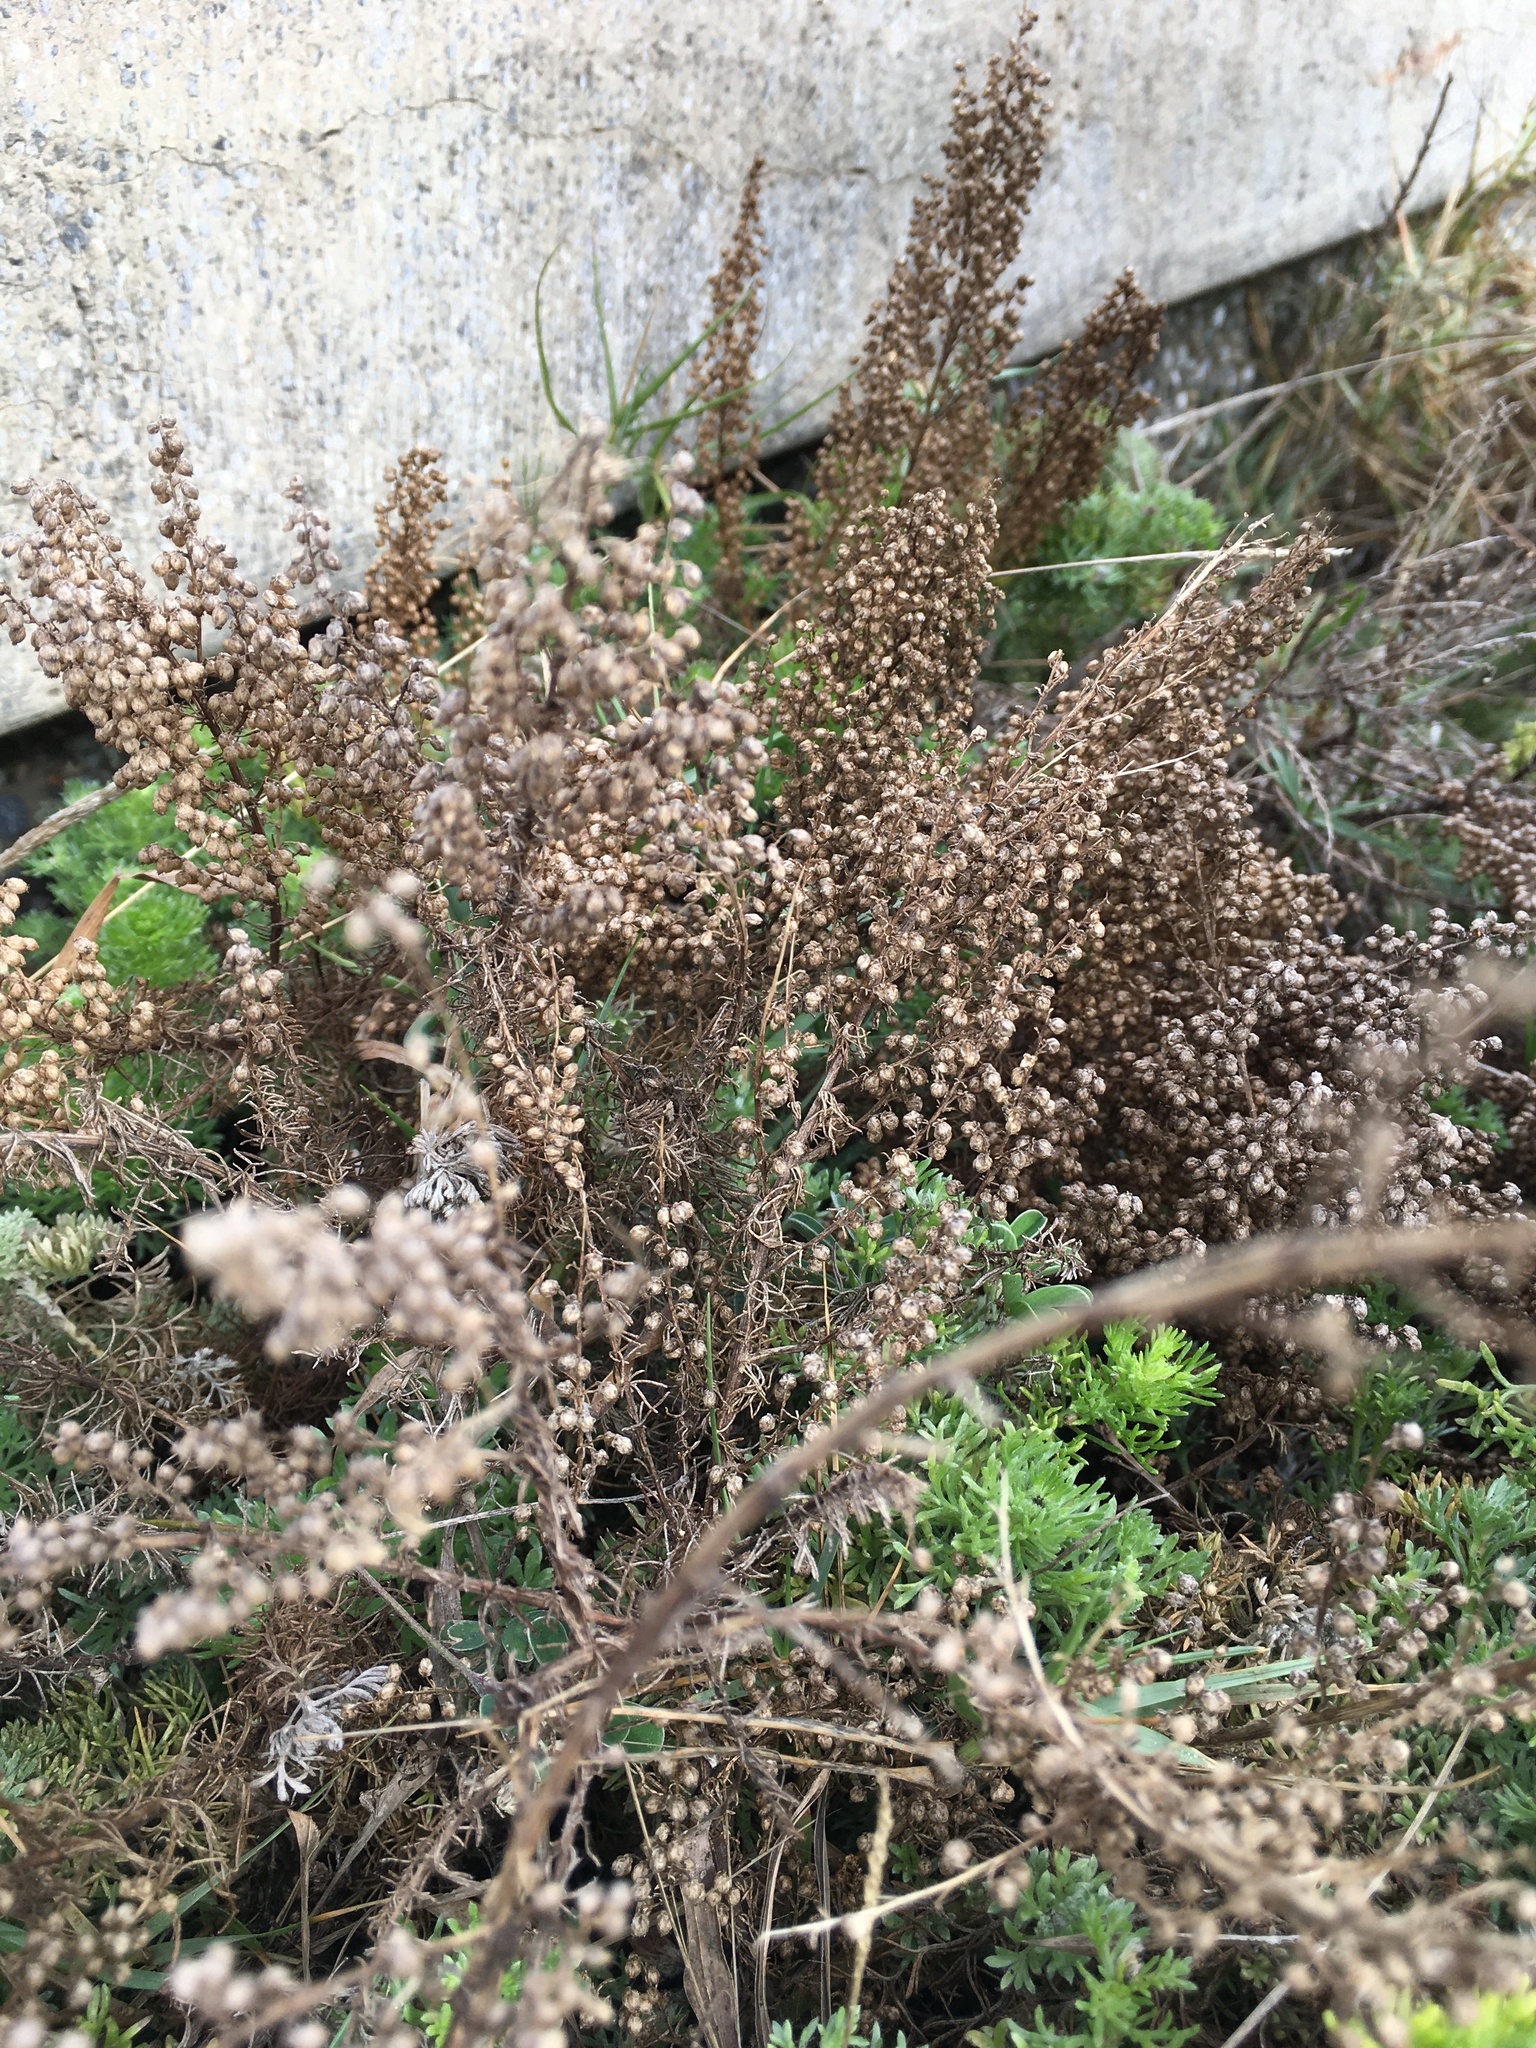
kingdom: Plantae
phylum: Tracheophyta
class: Magnoliopsida
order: Asterales
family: Asteraceae
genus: Artemisia
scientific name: Artemisia capillaris
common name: Yin-chen wormwood
